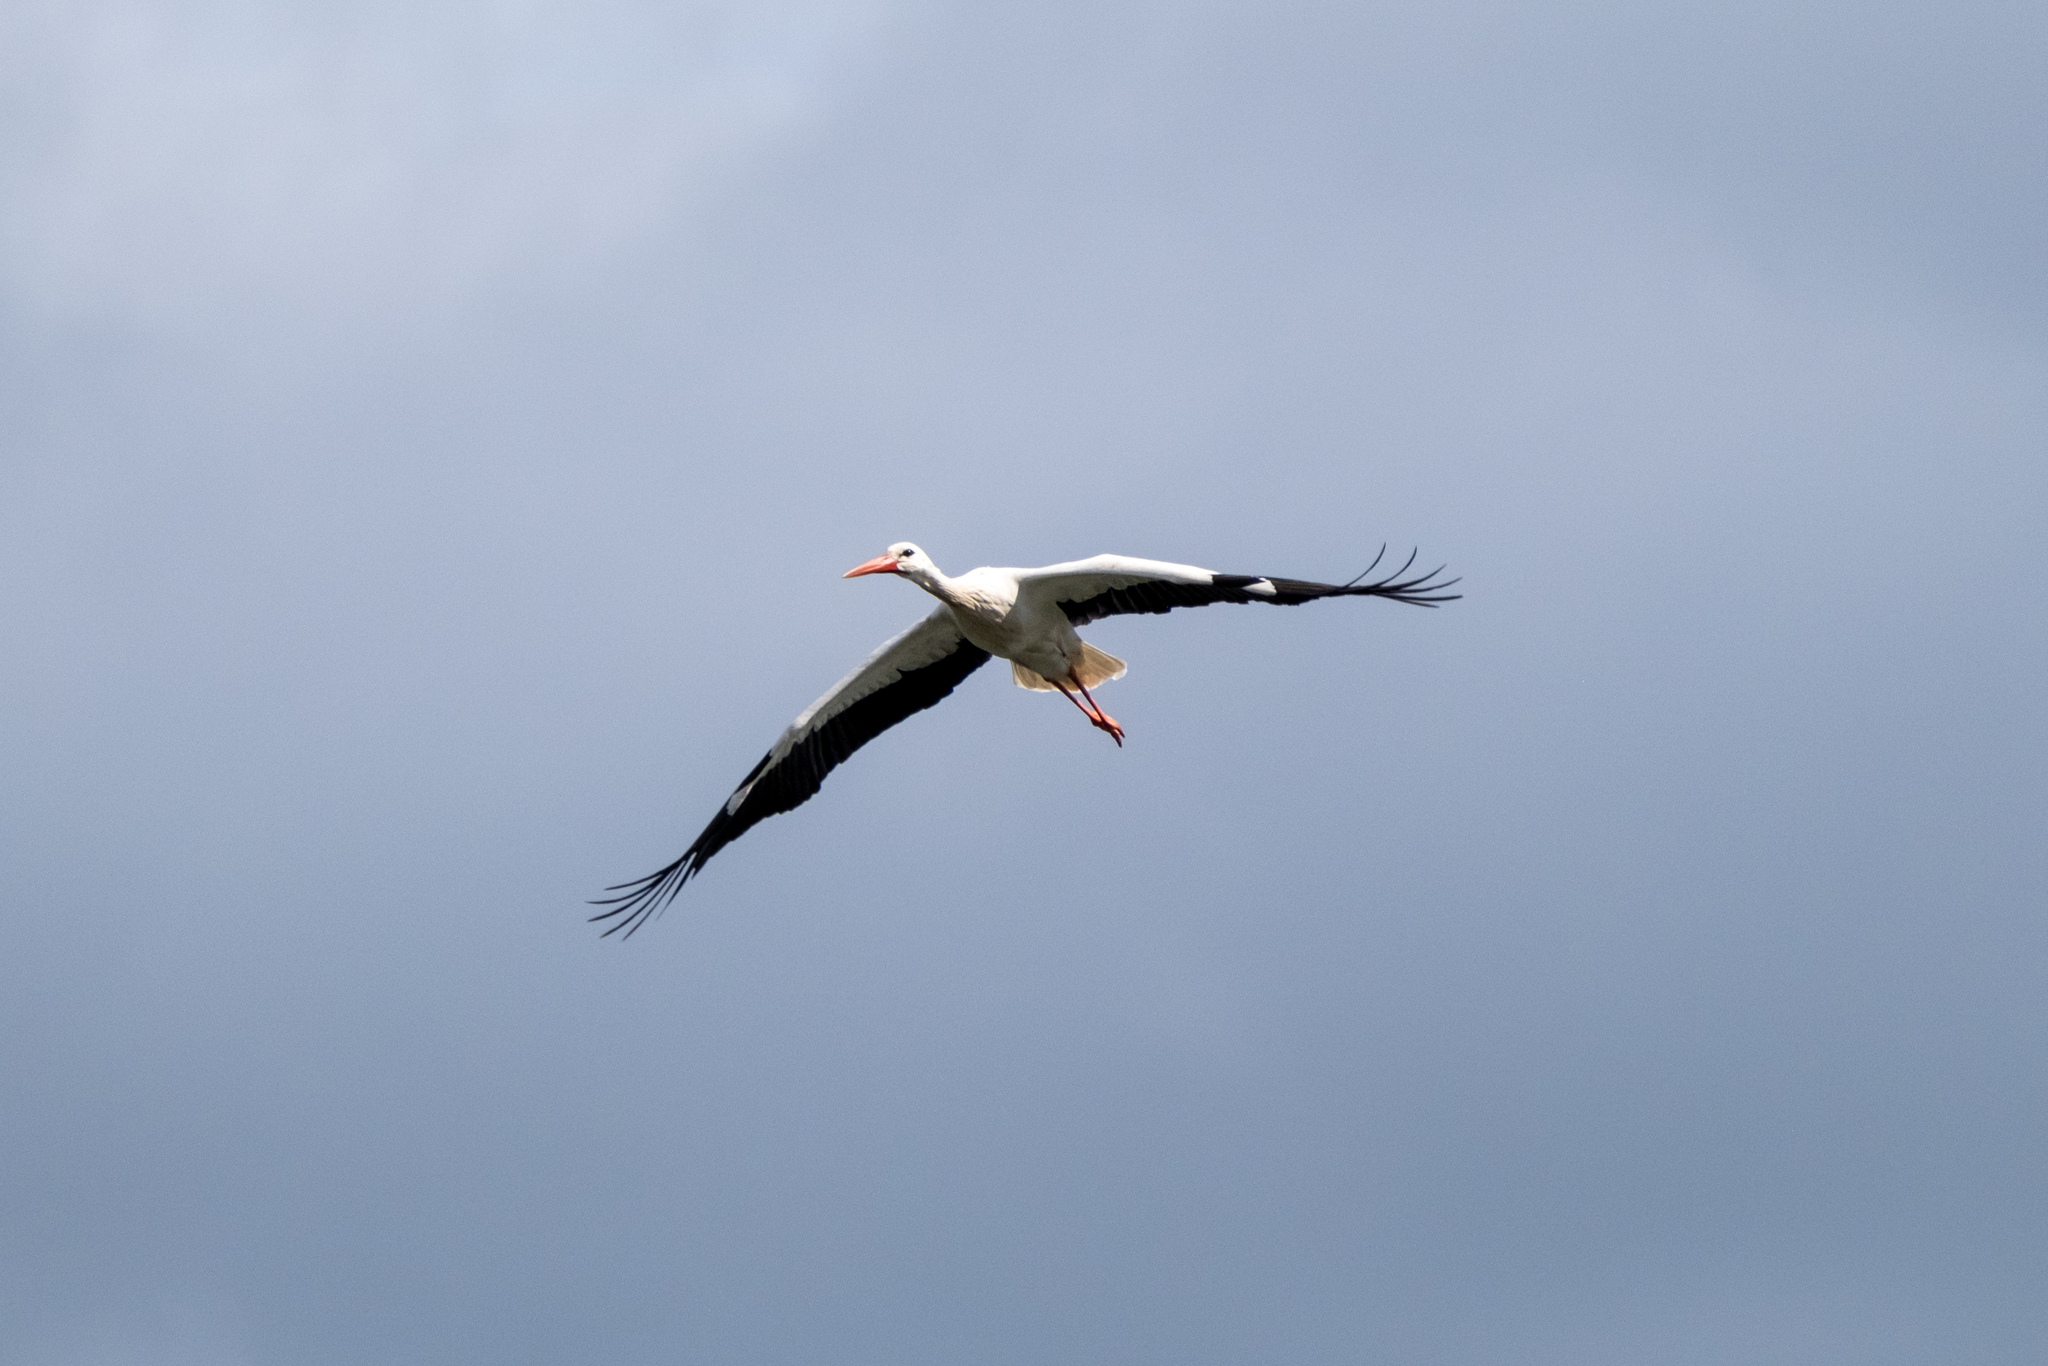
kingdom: Animalia
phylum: Chordata
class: Aves
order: Ciconiiformes
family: Ciconiidae
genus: Ciconia
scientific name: Ciconia ciconia
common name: White stork
